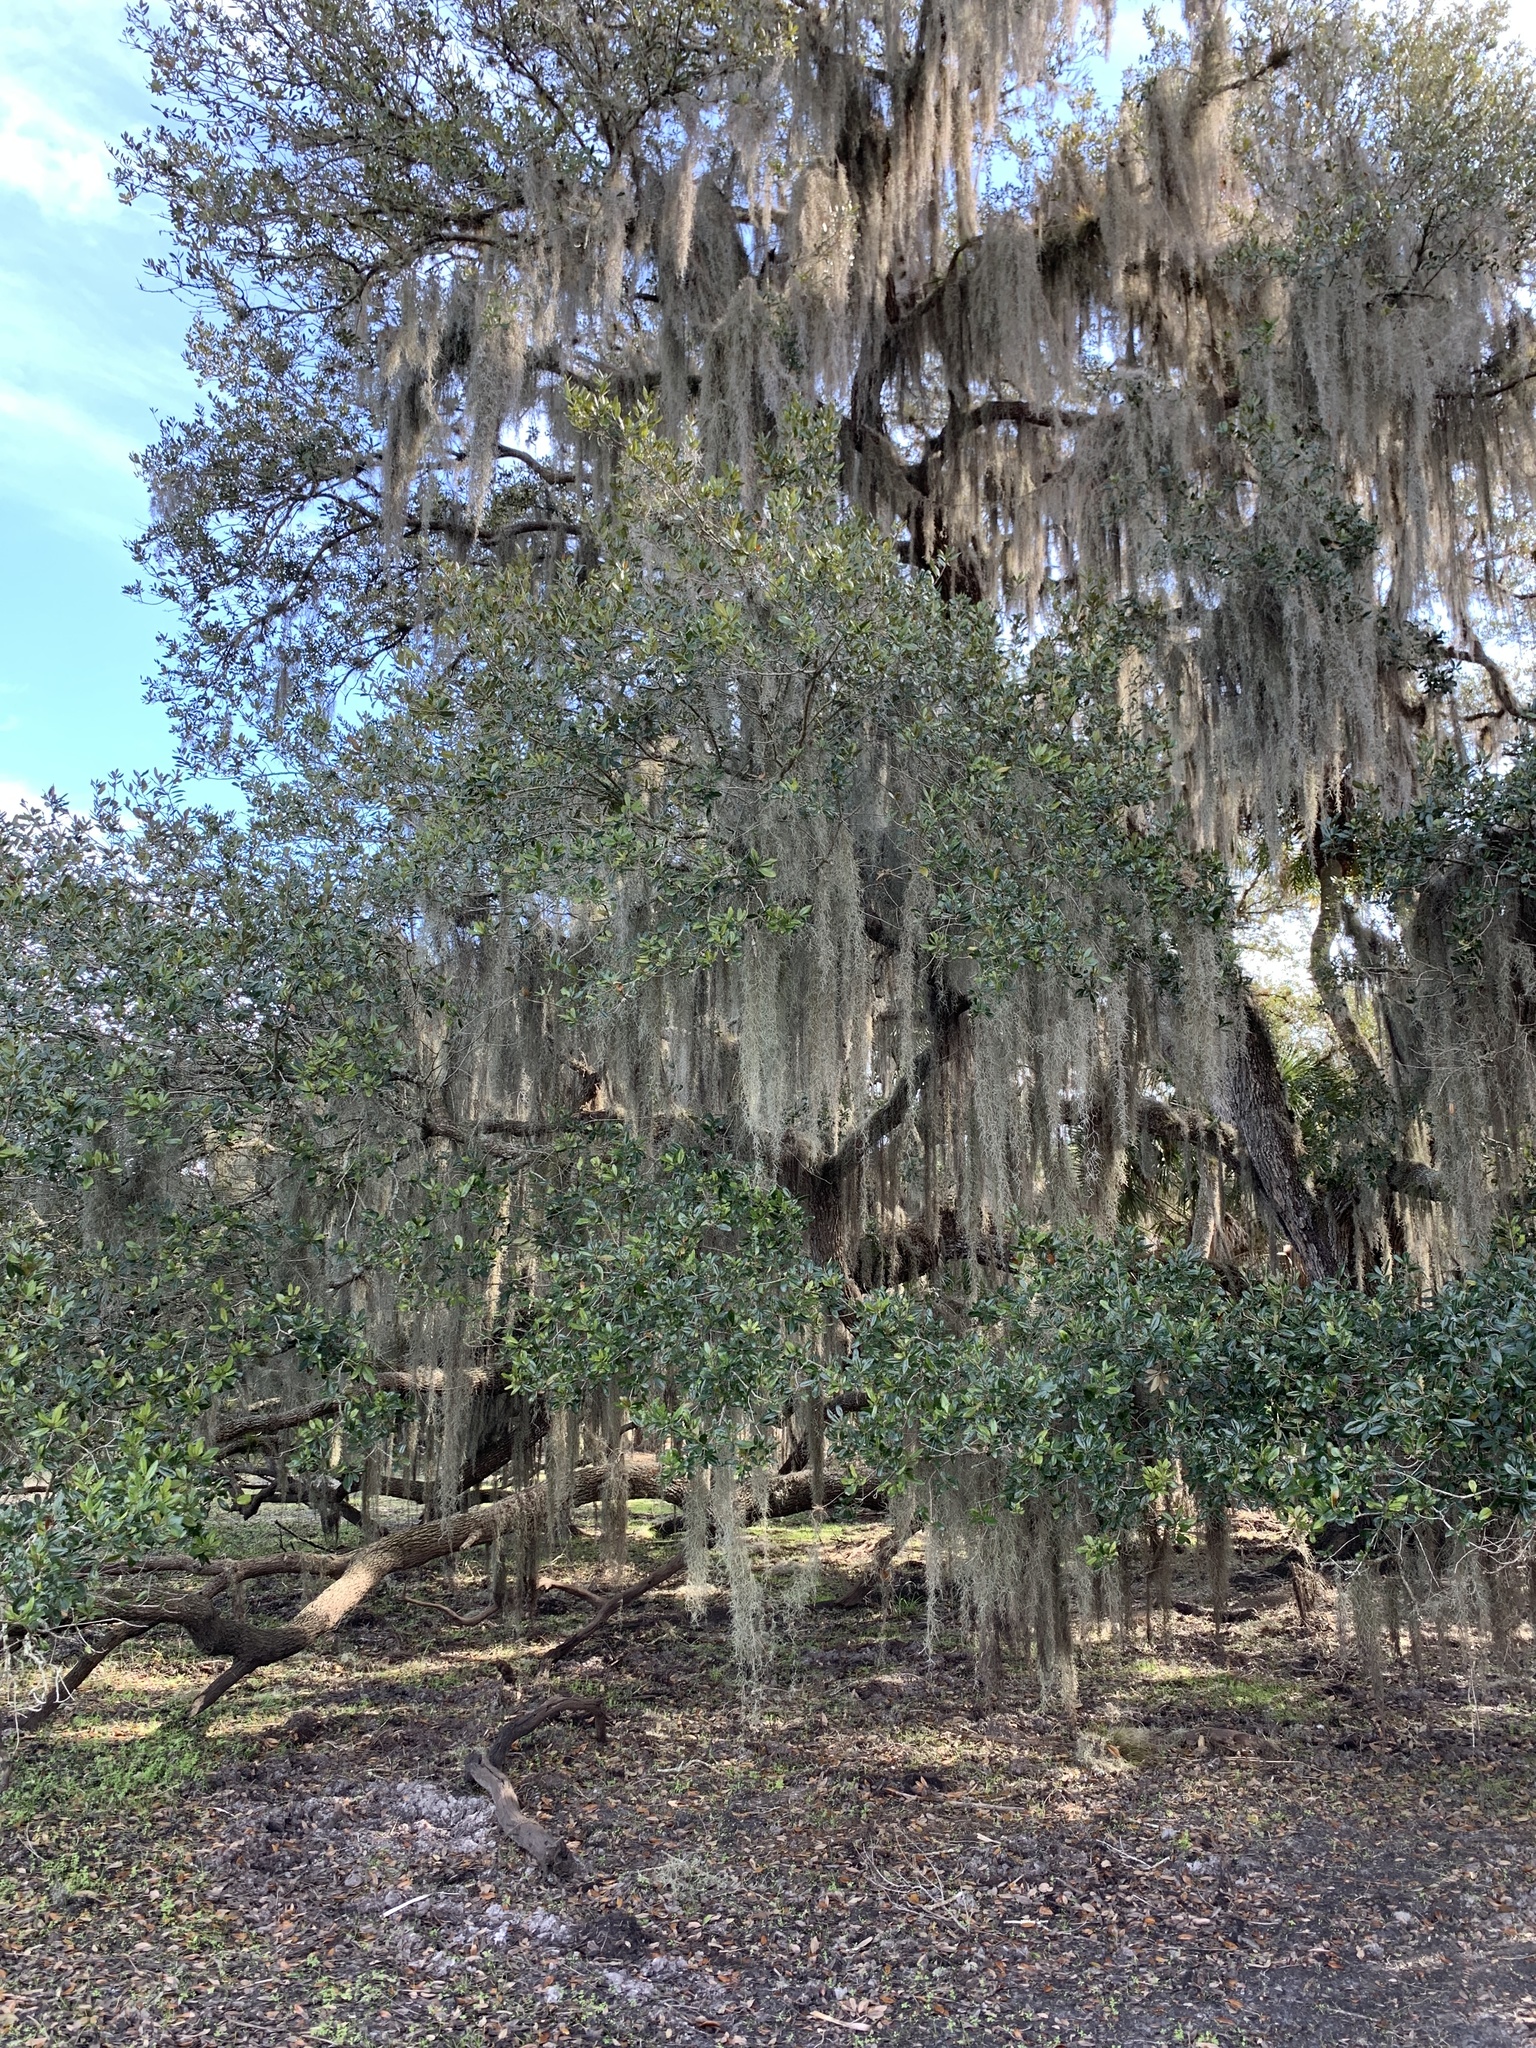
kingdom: Plantae
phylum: Tracheophyta
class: Magnoliopsida
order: Fagales
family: Fagaceae
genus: Quercus
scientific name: Quercus virginiana
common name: Southern live oak
